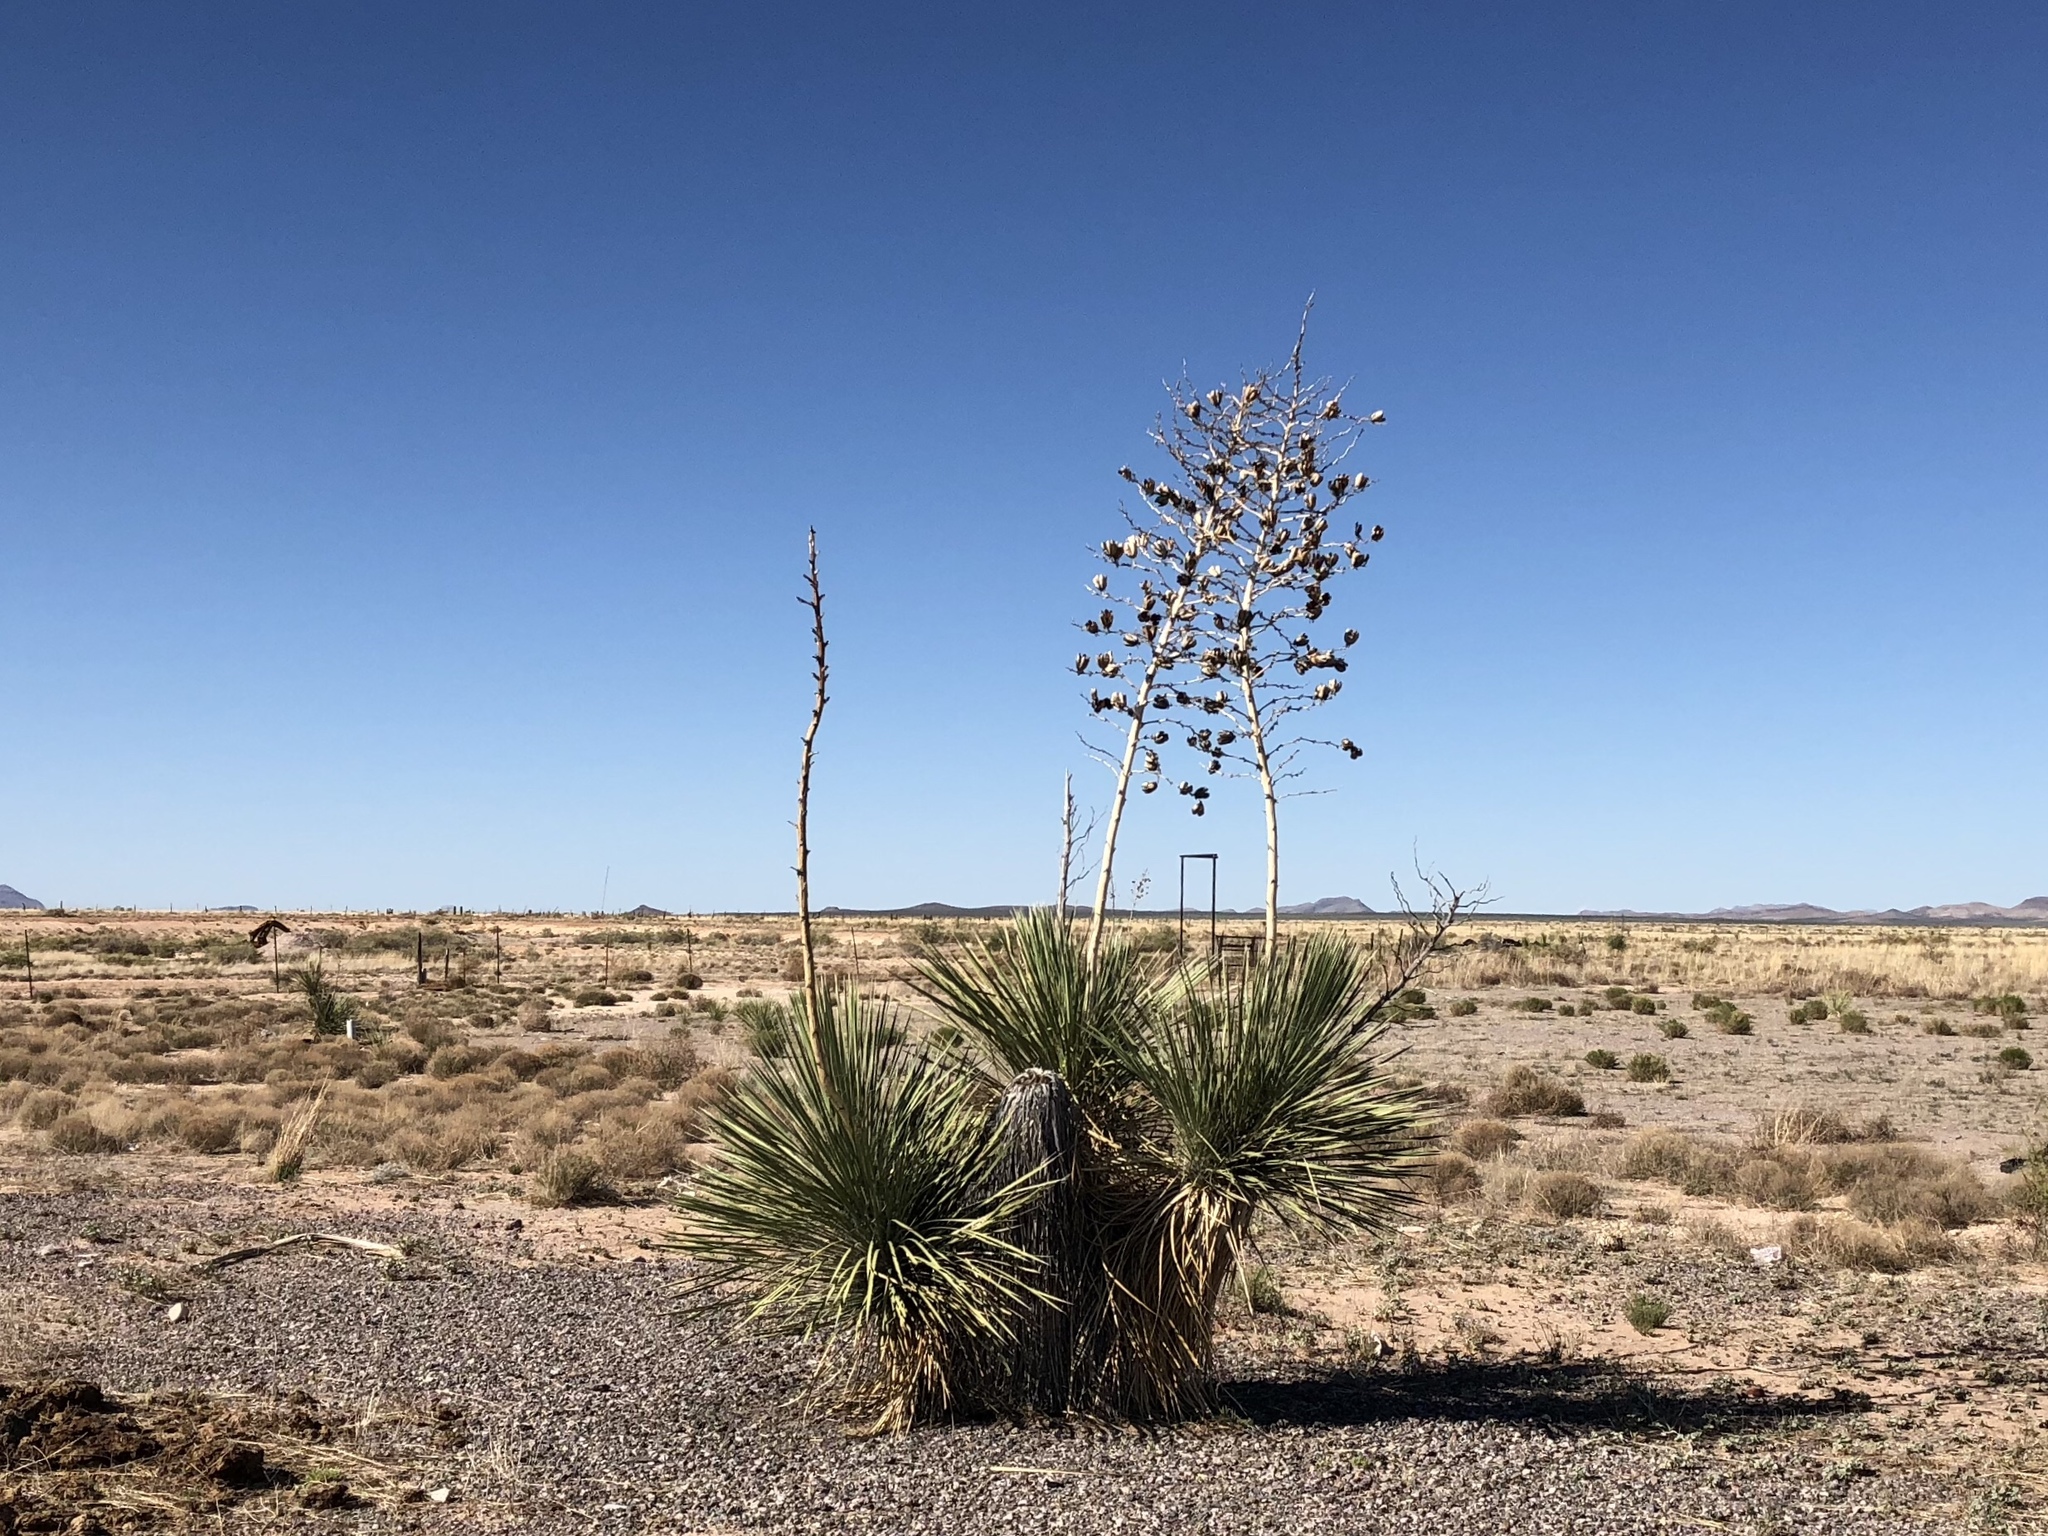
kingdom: Plantae
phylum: Tracheophyta
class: Liliopsida
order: Asparagales
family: Asparagaceae
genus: Yucca
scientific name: Yucca elata
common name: Palmella
